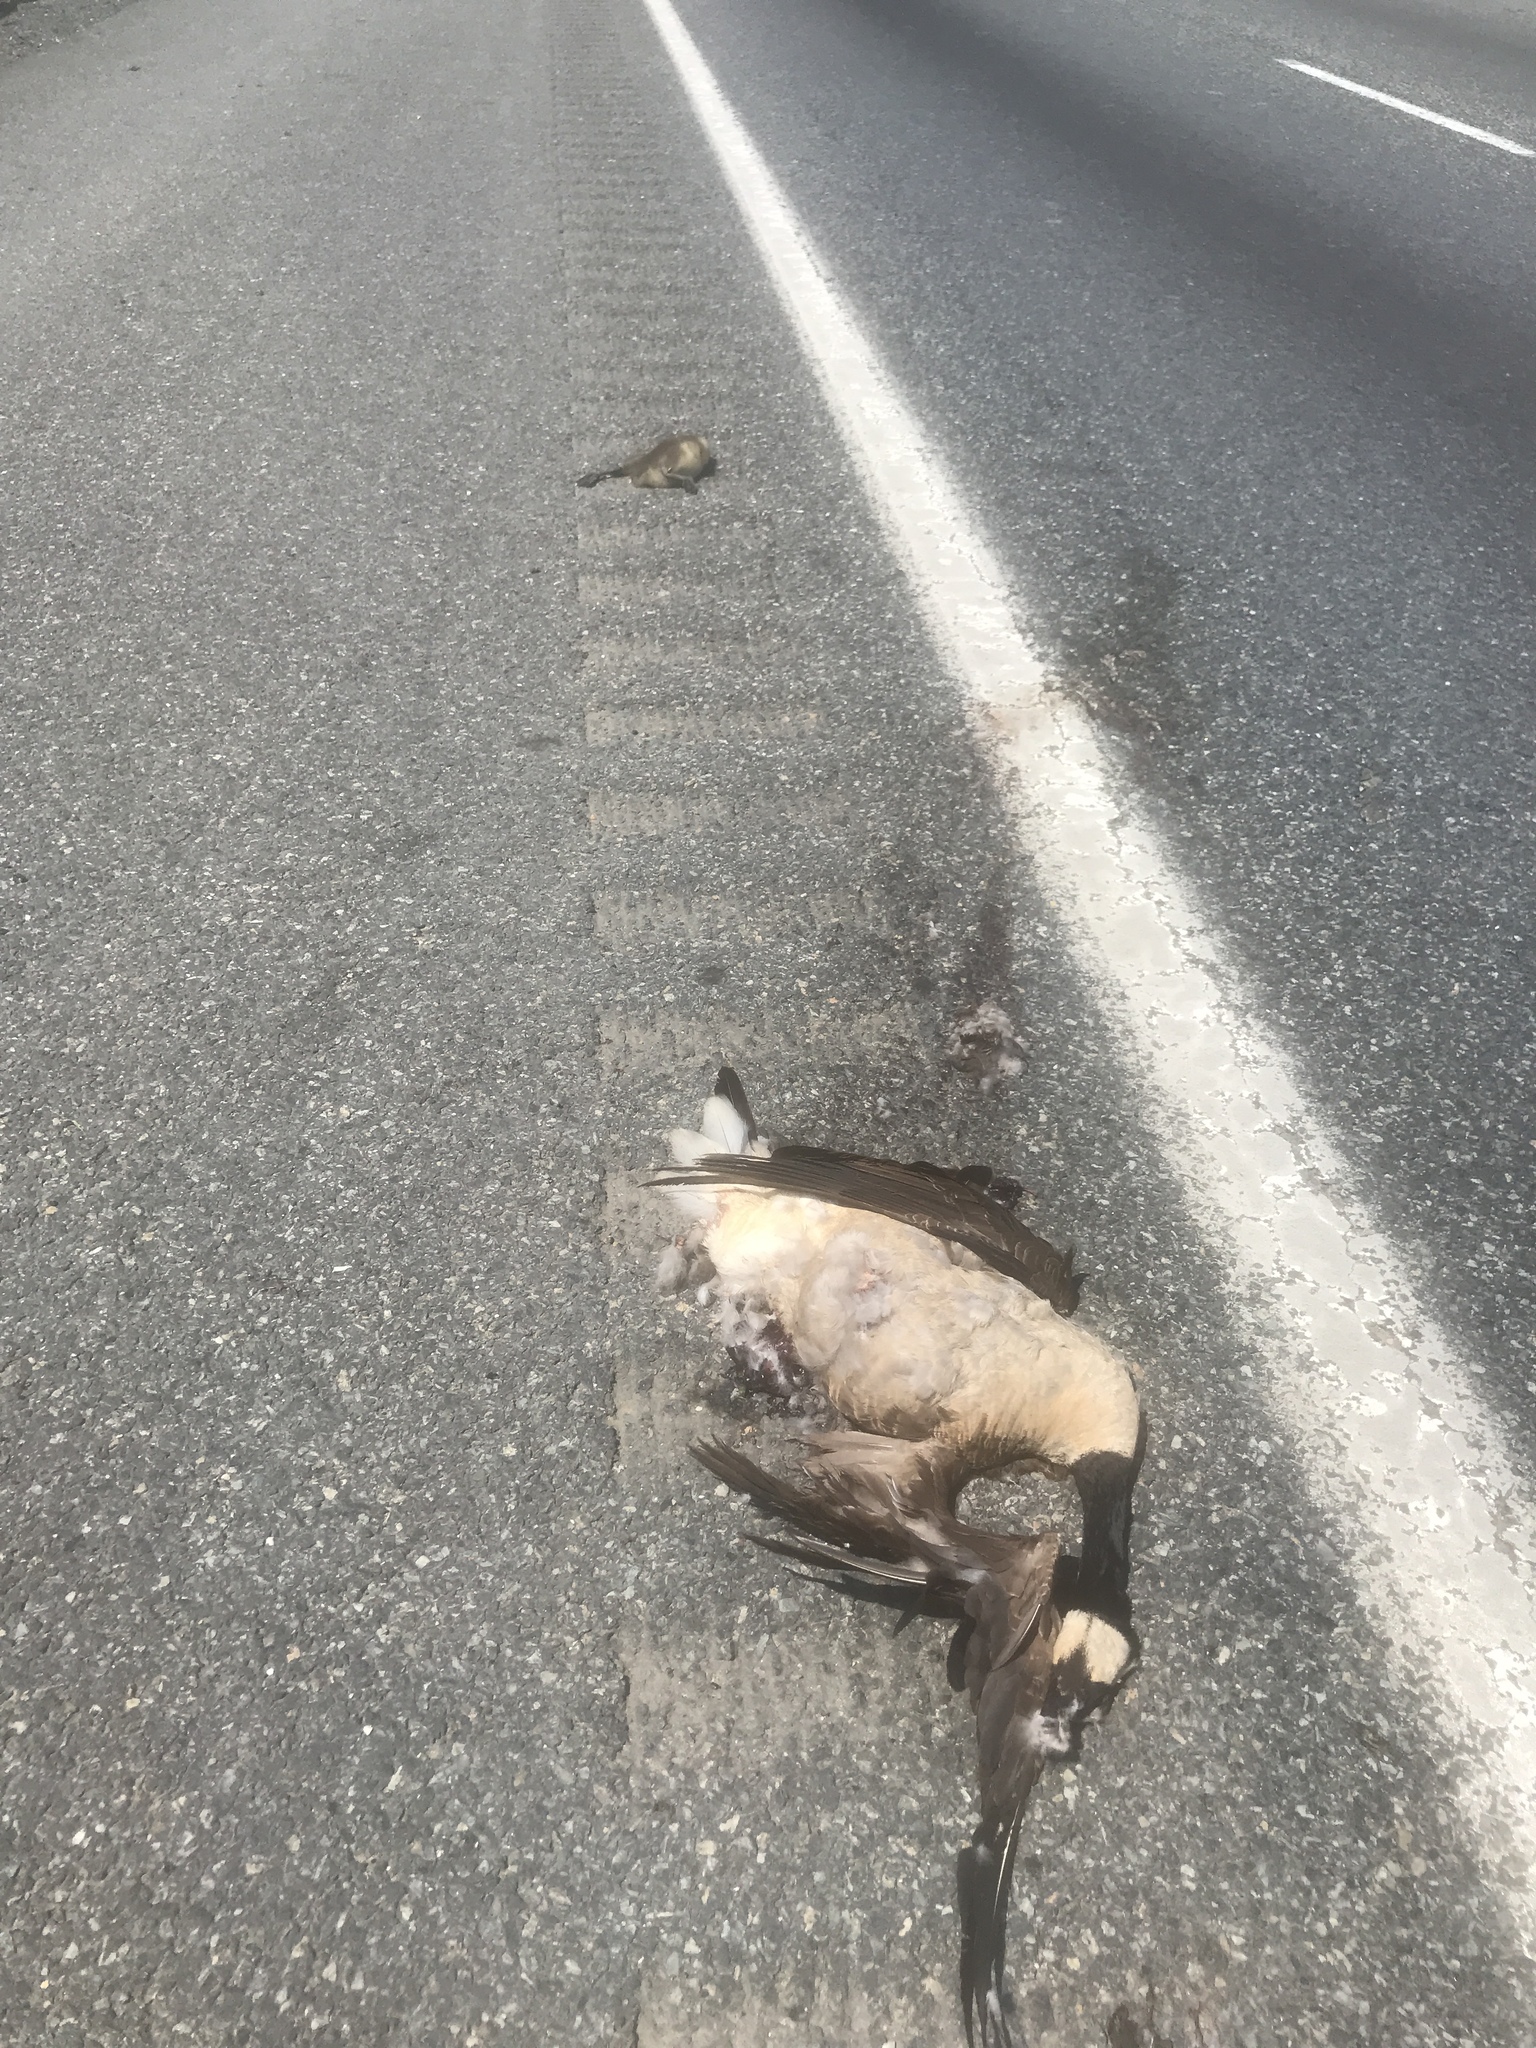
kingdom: Animalia
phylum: Chordata
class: Aves
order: Anseriformes
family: Anatidae
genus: Branta
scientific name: Branta canadensis
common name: Canada goose
